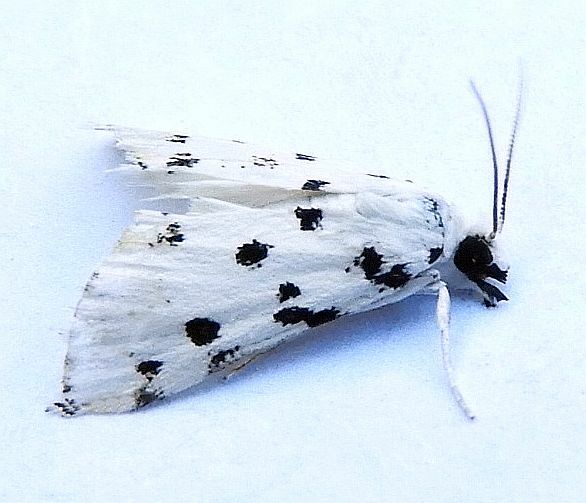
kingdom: Animalia
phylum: Arthropoda
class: Insecta
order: Lepidoptera
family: Crambidae
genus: Eustixia
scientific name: Eustixia pupula
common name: American cabbage pearl
